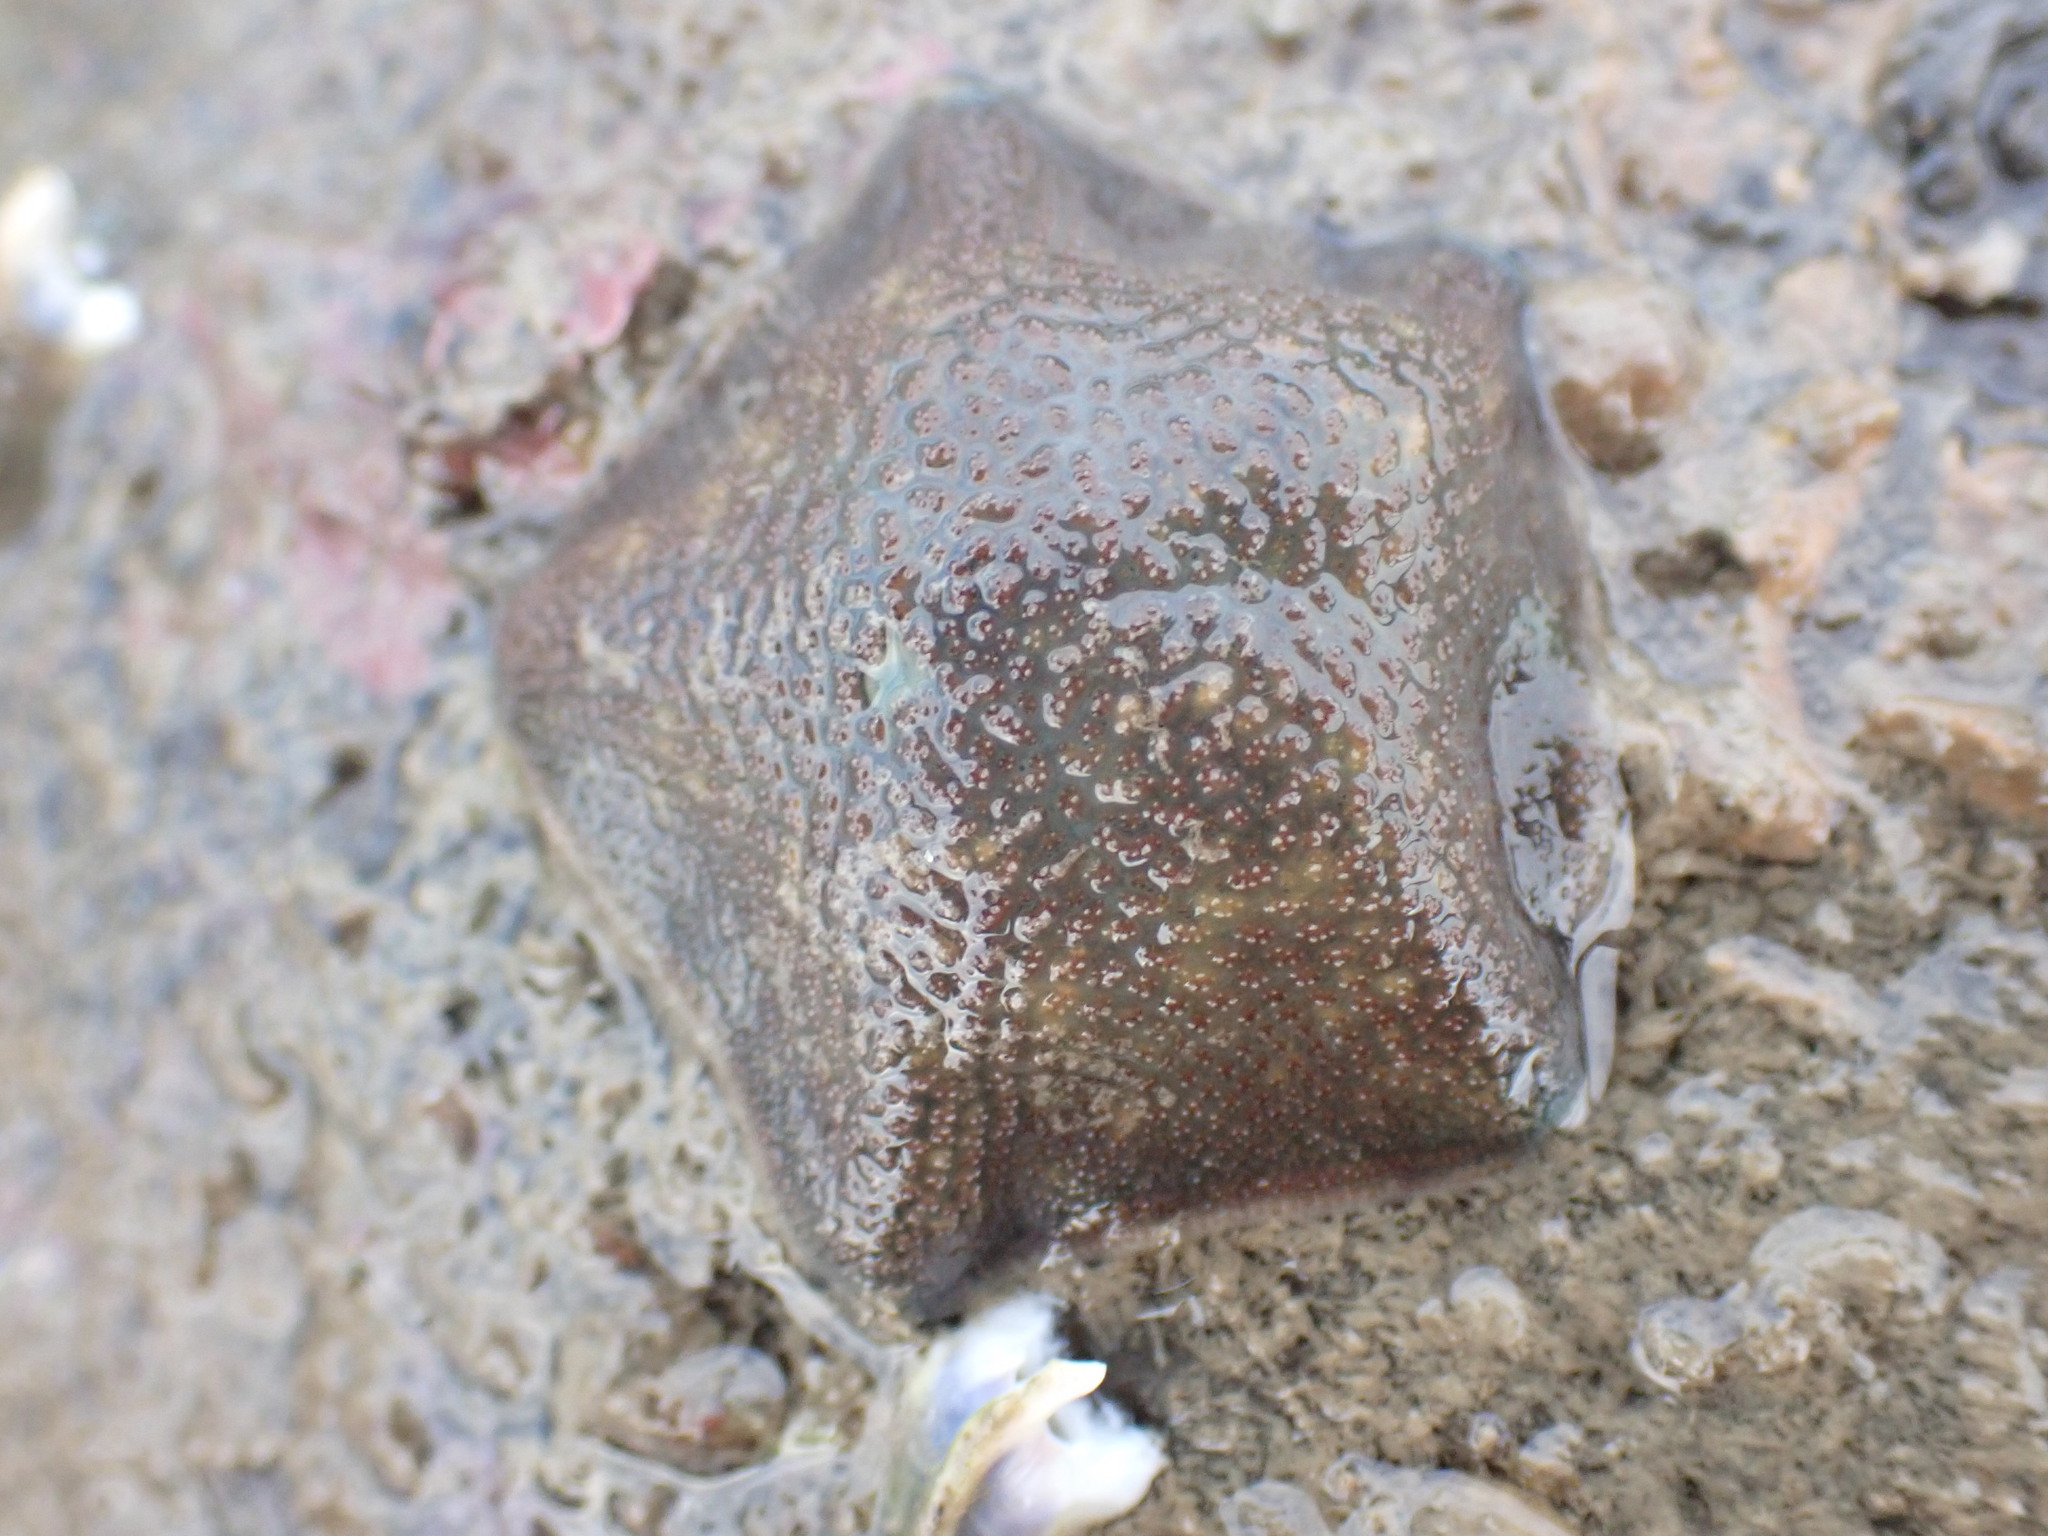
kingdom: Animalia
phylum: Echinodermata
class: Asteroidea
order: Valvatida
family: Asterinidae
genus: Patiriella
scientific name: Patiriella regularis
